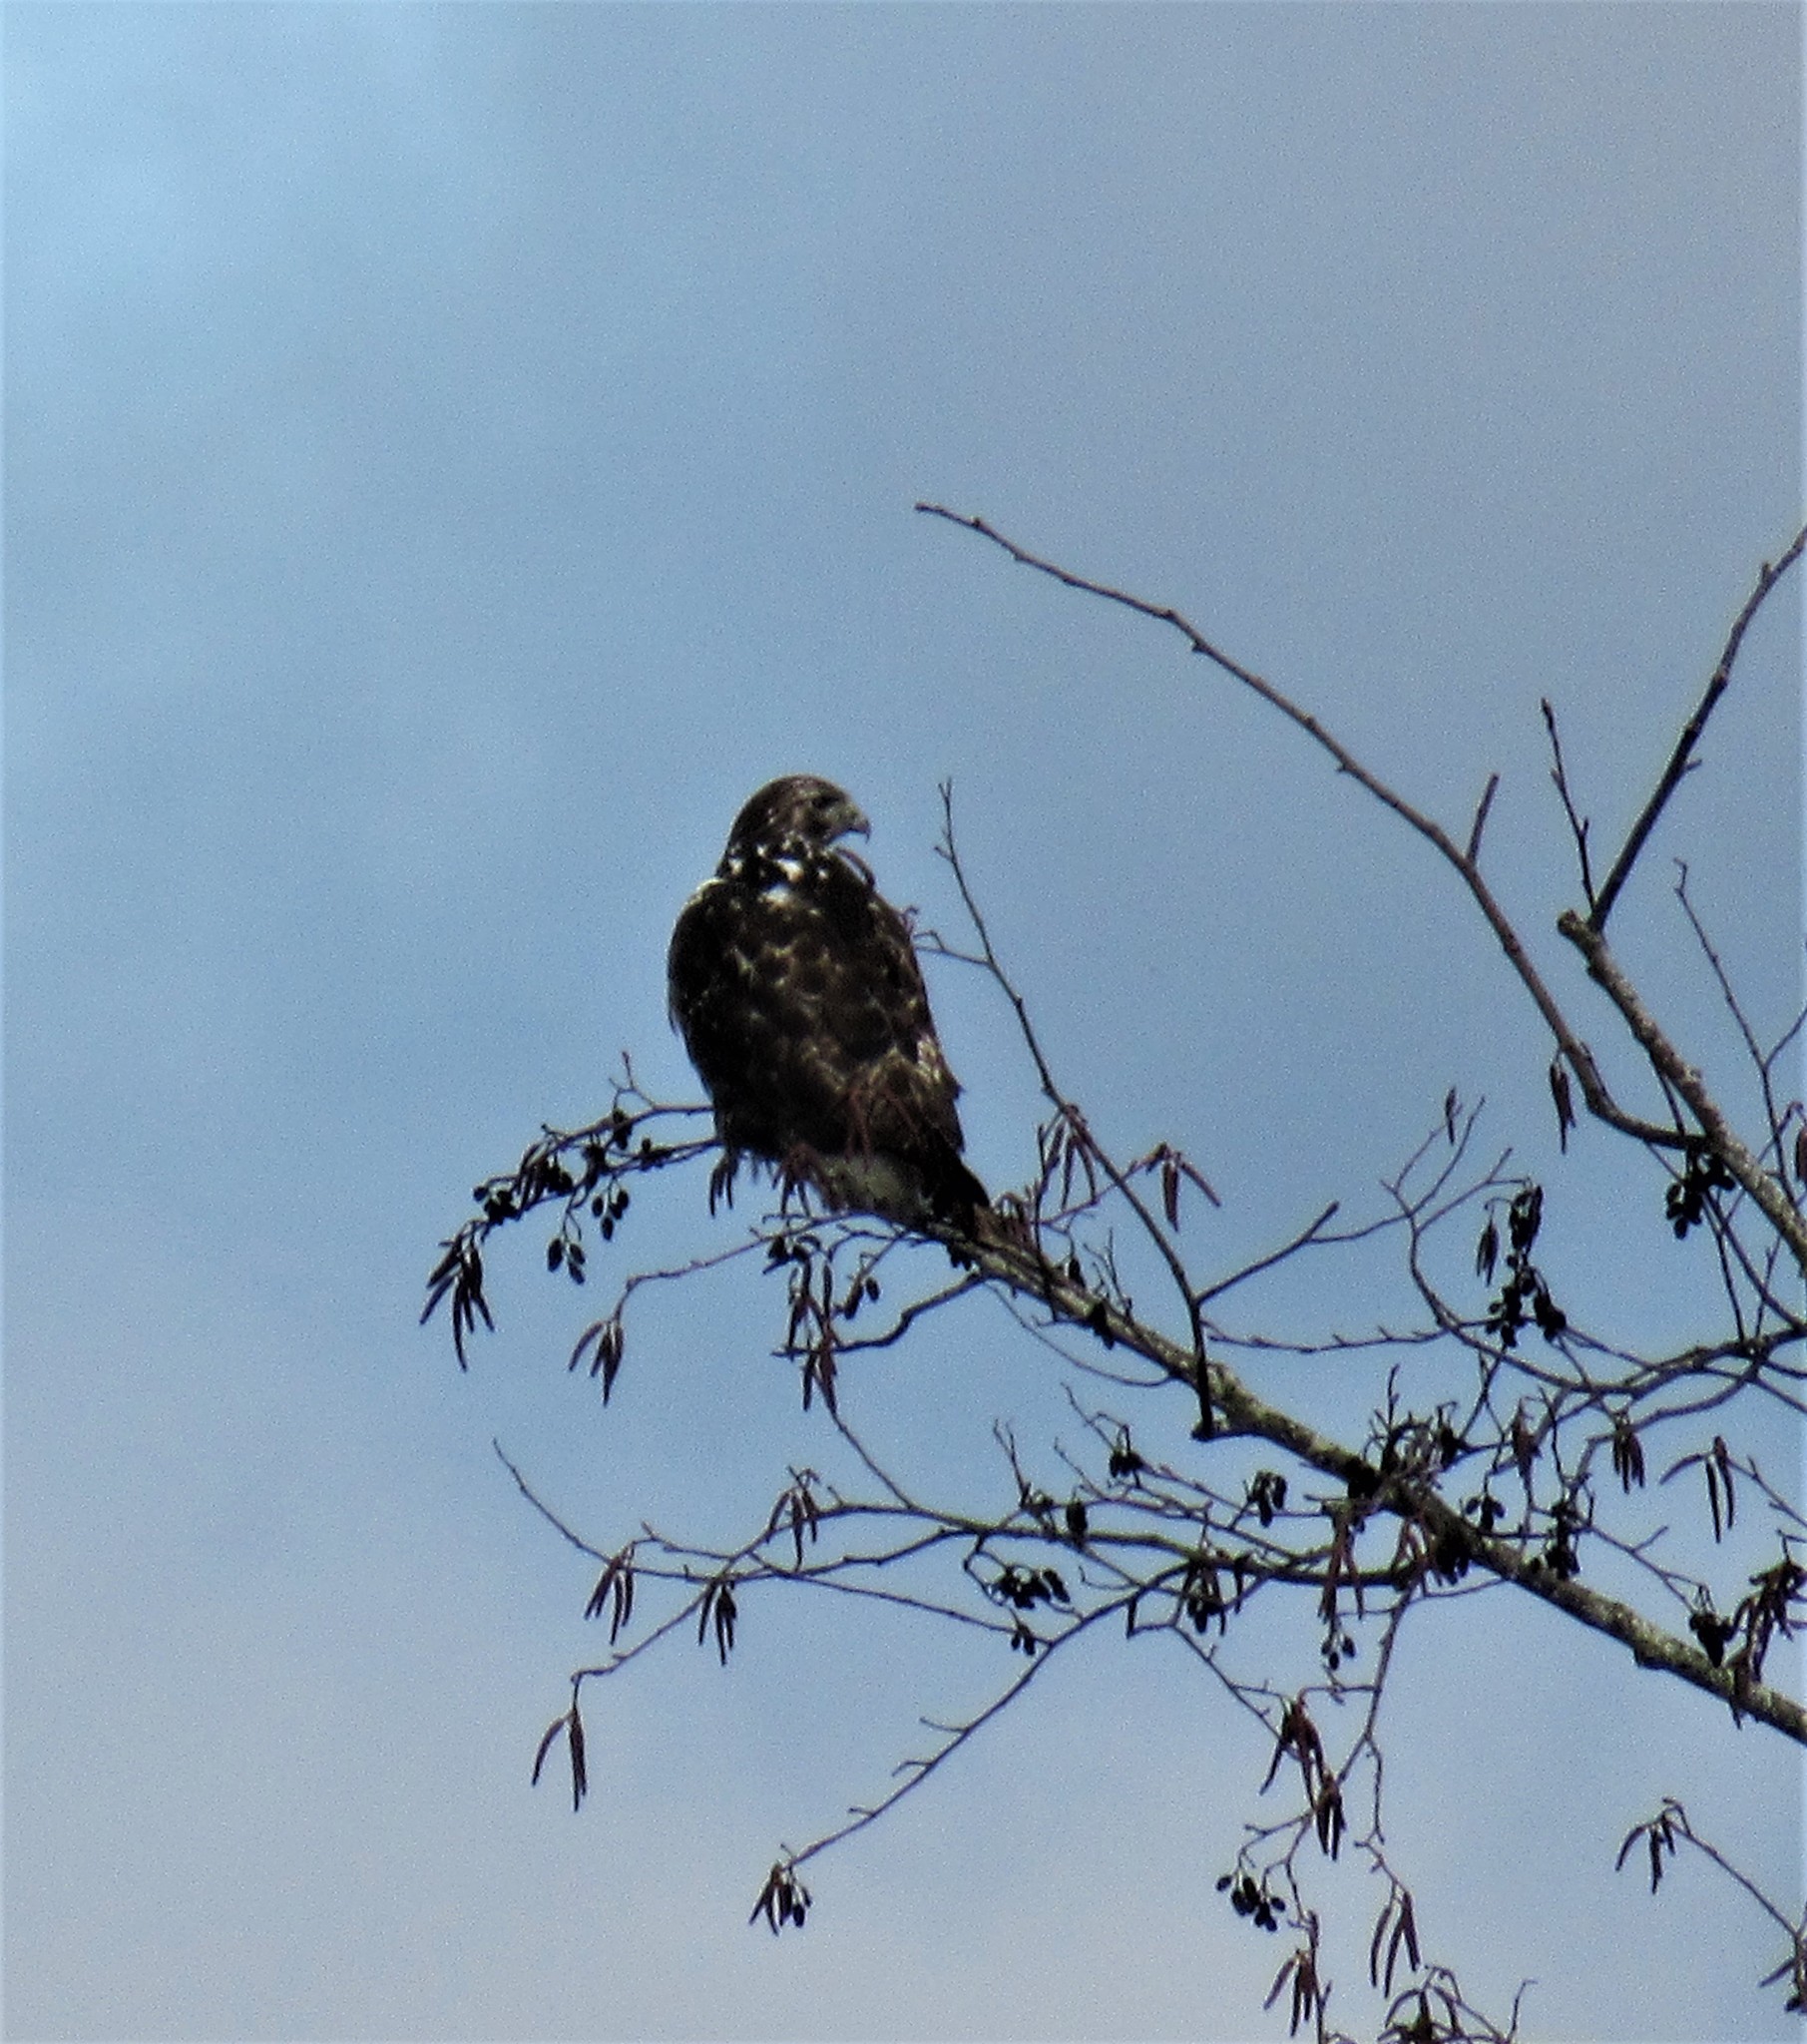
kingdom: Animalia
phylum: Chordata
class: Aves
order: Accipitriformes
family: Accipitridae
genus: Haliaeetus
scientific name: Haliaeetus leucocephalus
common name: Bald eagle
